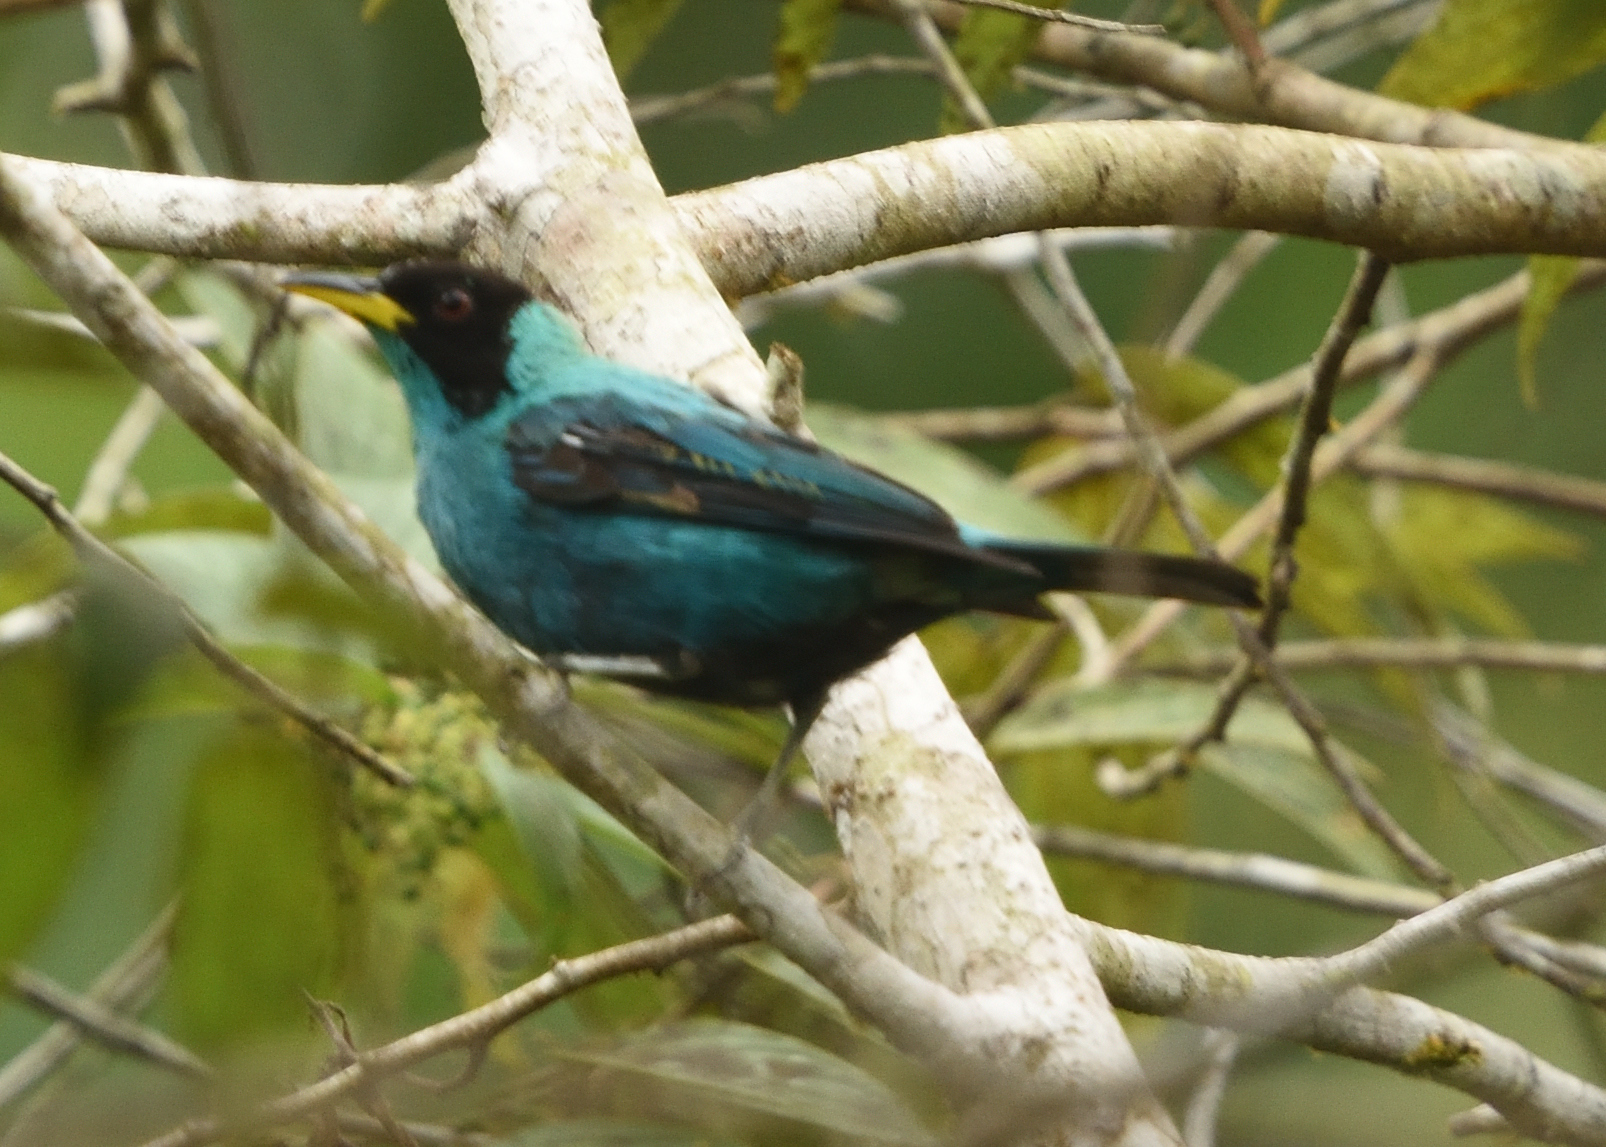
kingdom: Animalia
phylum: Chordata
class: Aves
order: Passeriformes
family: Thraupidae
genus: Chlorophanes
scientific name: Chlorophanes spiza
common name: Green honeycreeper
